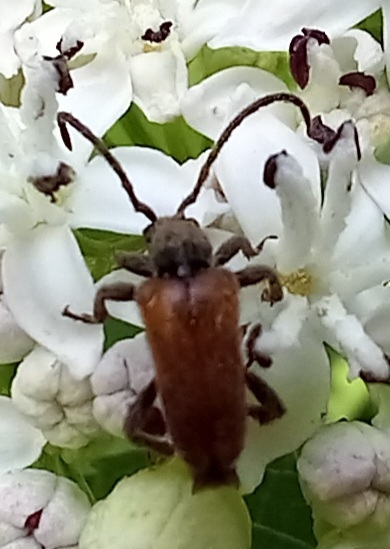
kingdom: Animalia
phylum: Arthropoda
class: Insecta
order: Coleoptera
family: Cerambycidae
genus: Pseudovadonia
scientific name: Pseudovadonia livida
